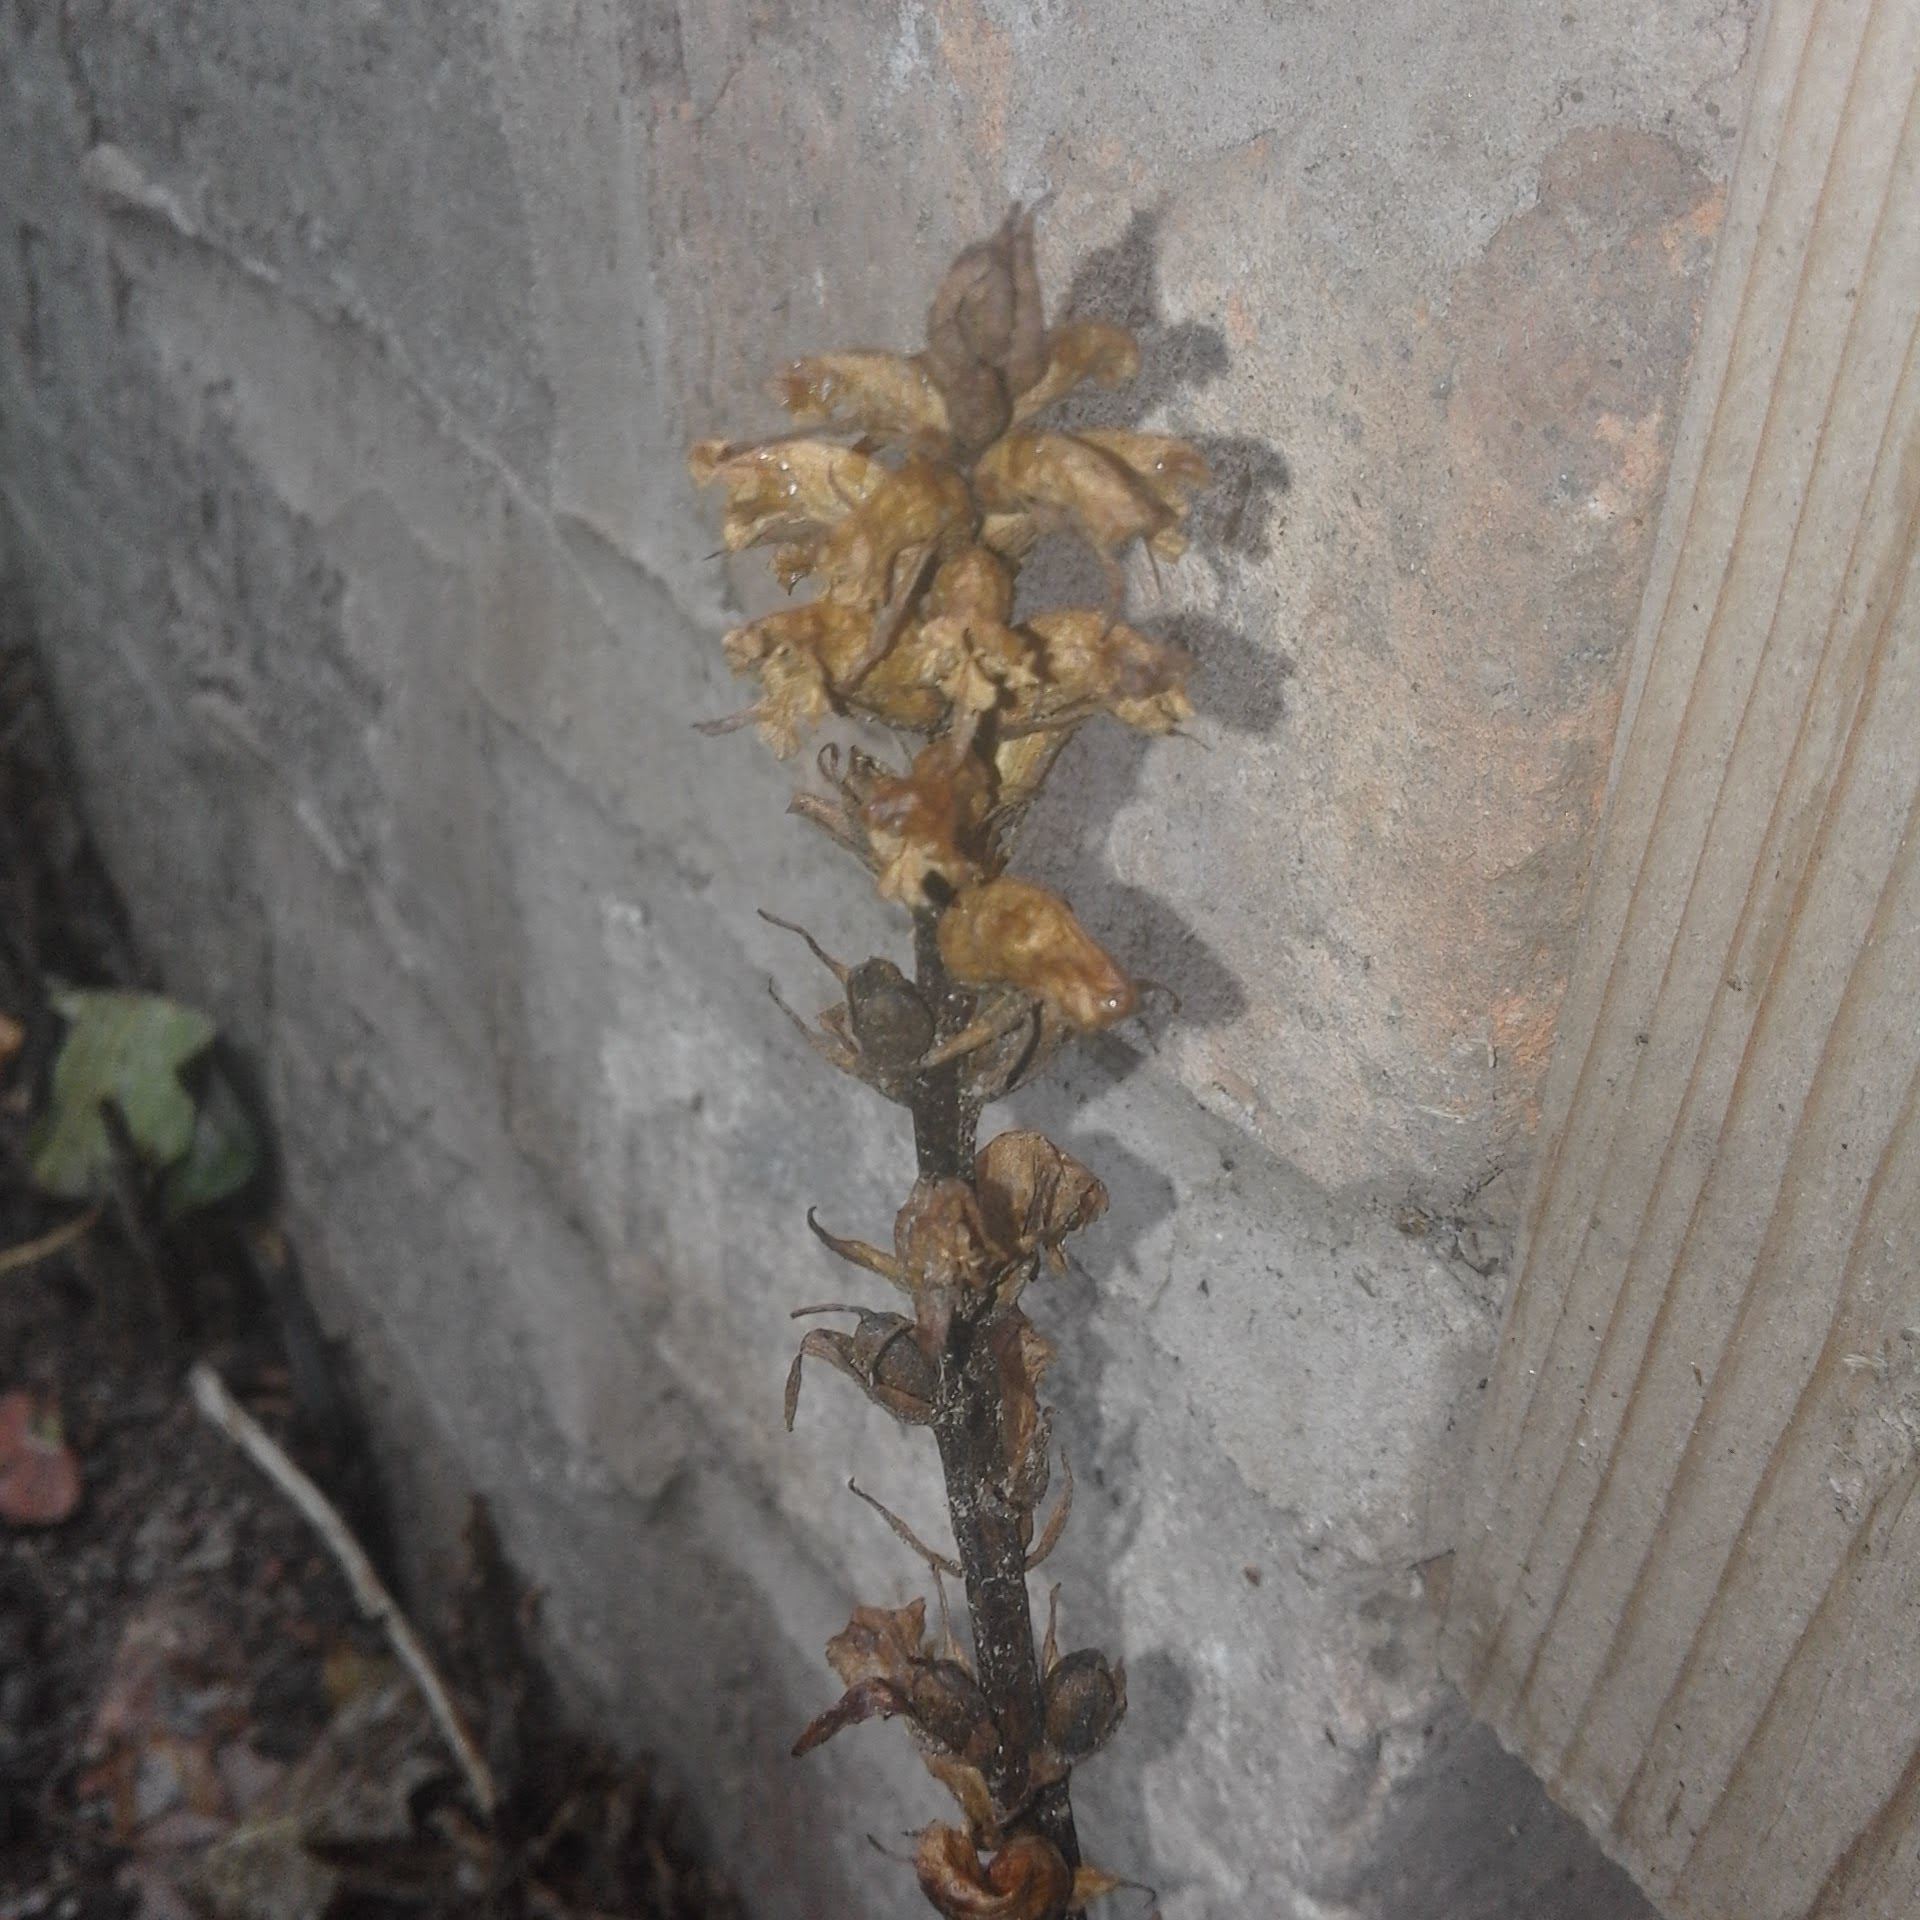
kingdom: Plantae
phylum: Tracheophyta
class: Magnoliopsida
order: Lamiales
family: Orobanchaceae
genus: Orobanche
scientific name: Orobanche hederae
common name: Ivy broomrape
